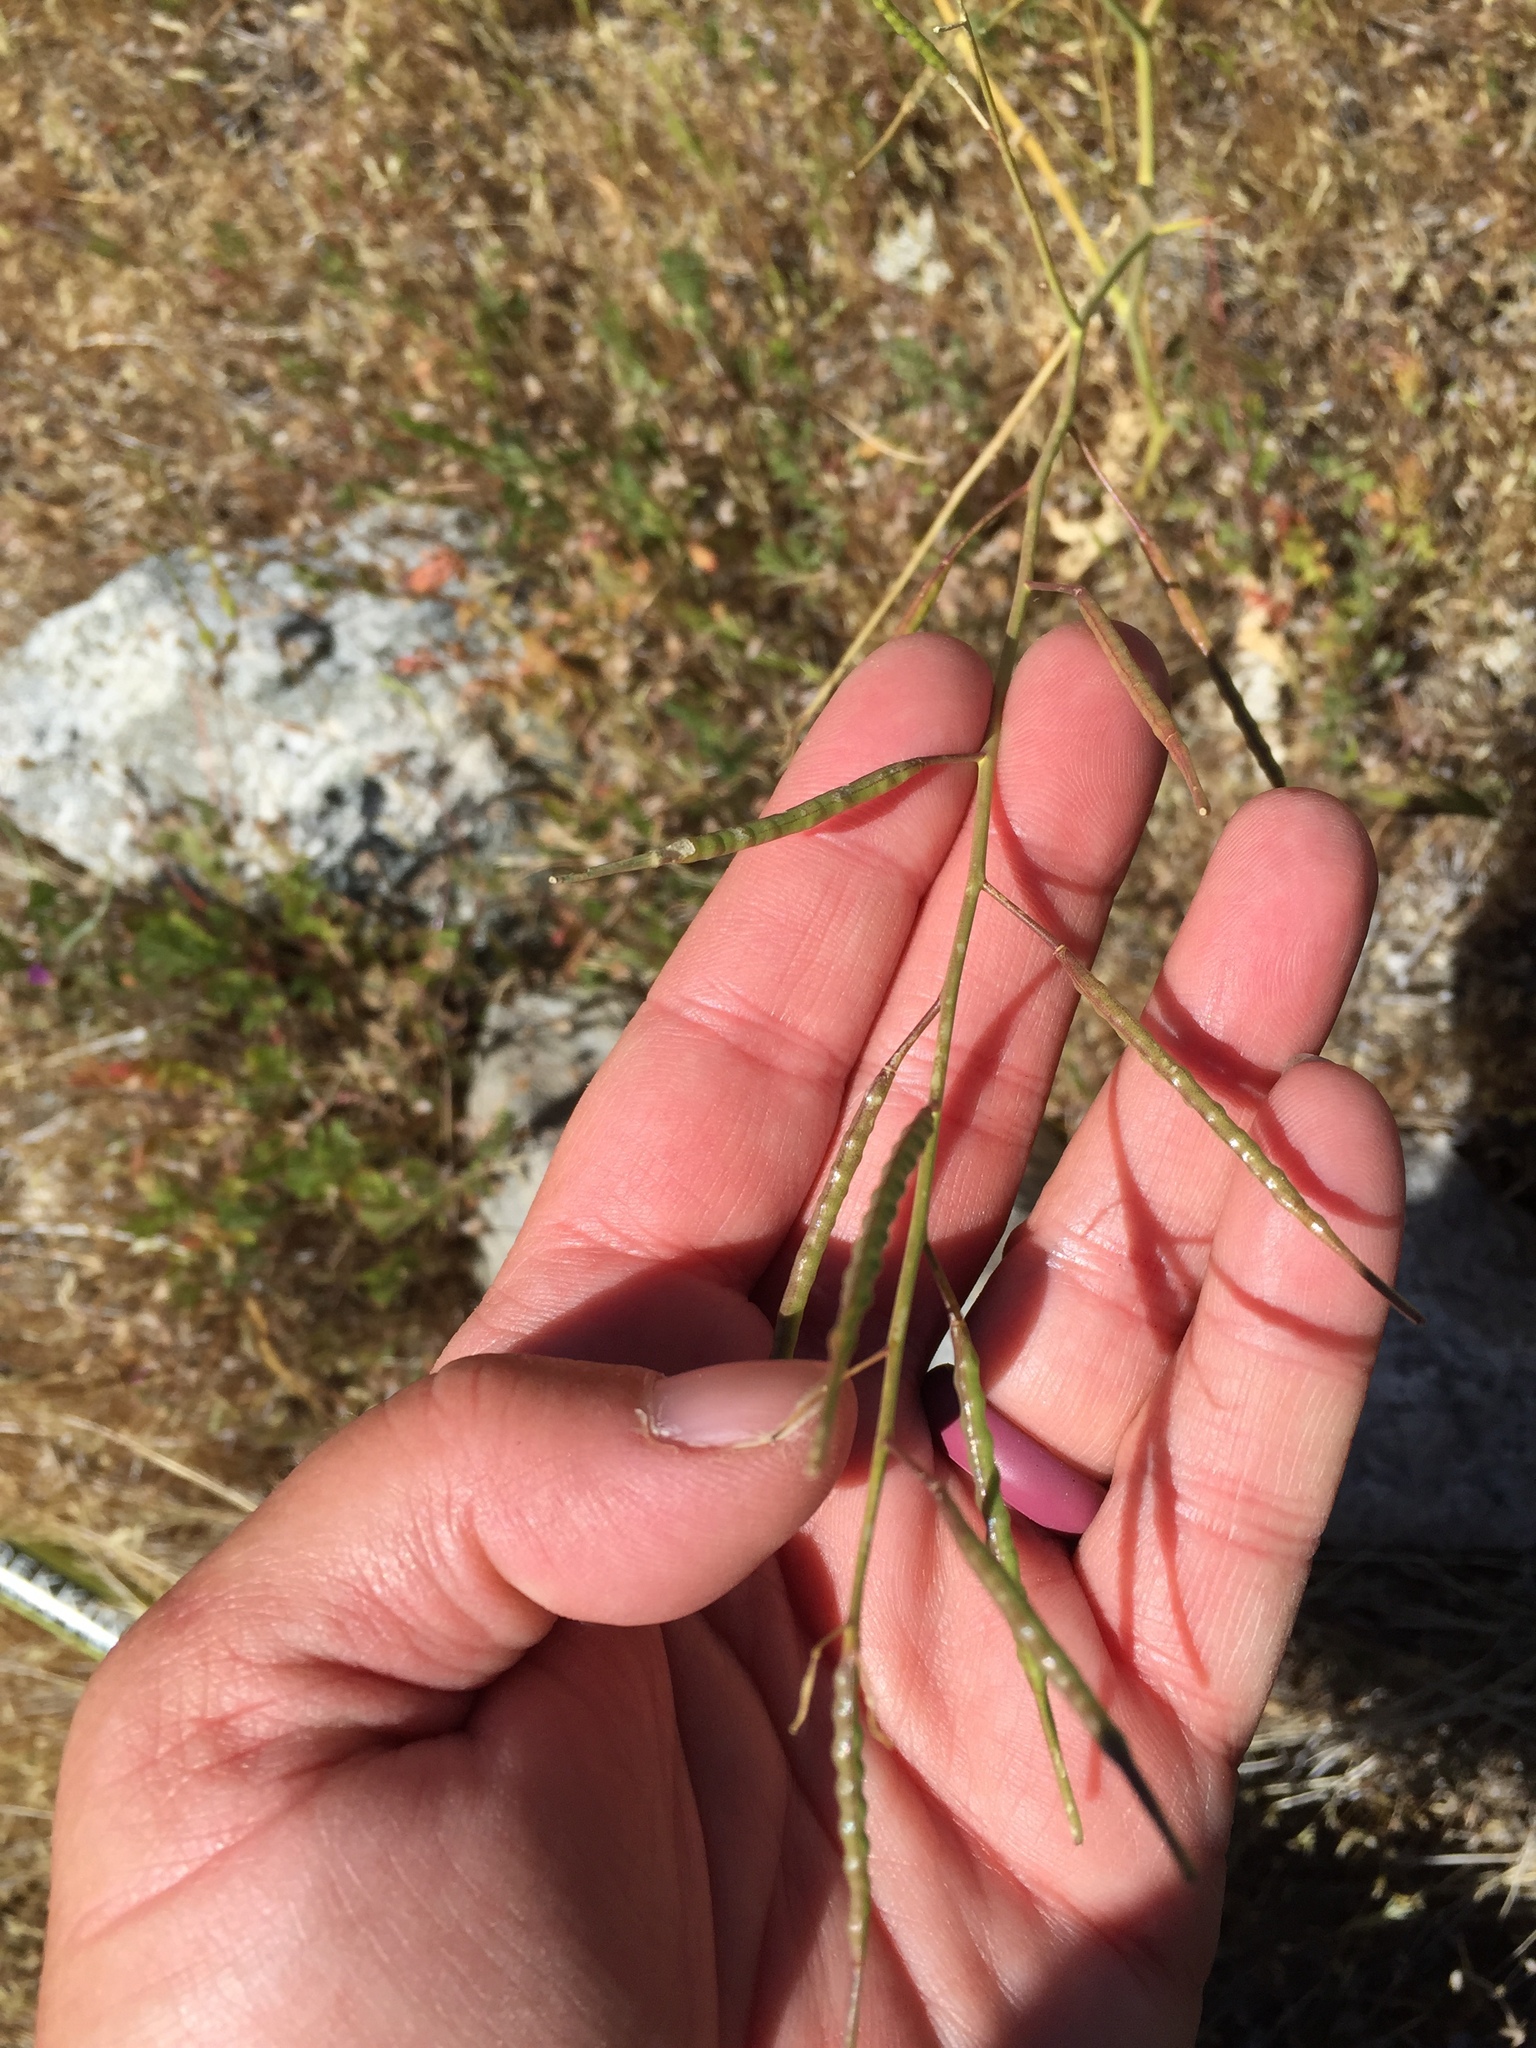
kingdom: Plantae
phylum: Tracheophyta
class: Magnoliopsida
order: Brassicales
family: Brassicaceae
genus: Brassica
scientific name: Brassica tournefortii
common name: Pale cabbage
